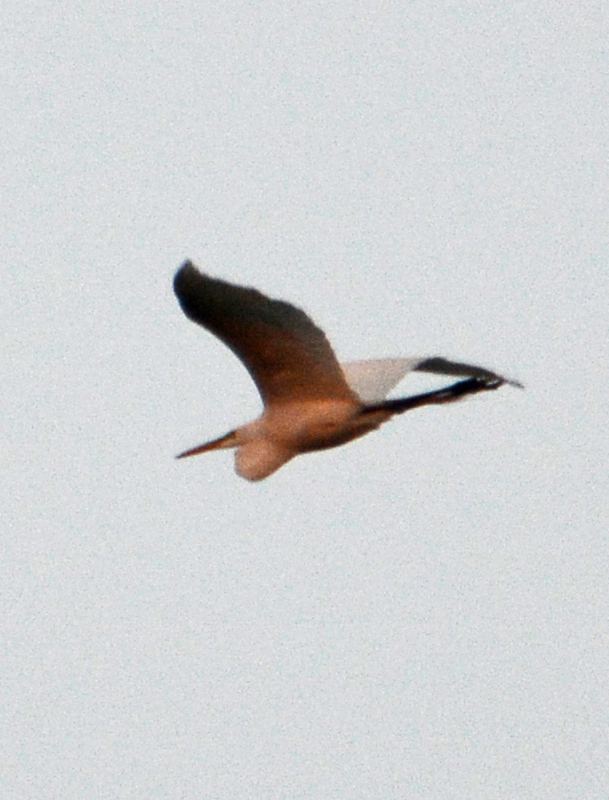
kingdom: Animalia
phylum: Chordata
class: Aves
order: Pelecaniformes
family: Ardeidae
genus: Ardea
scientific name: Ardea alba
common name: Great egret
